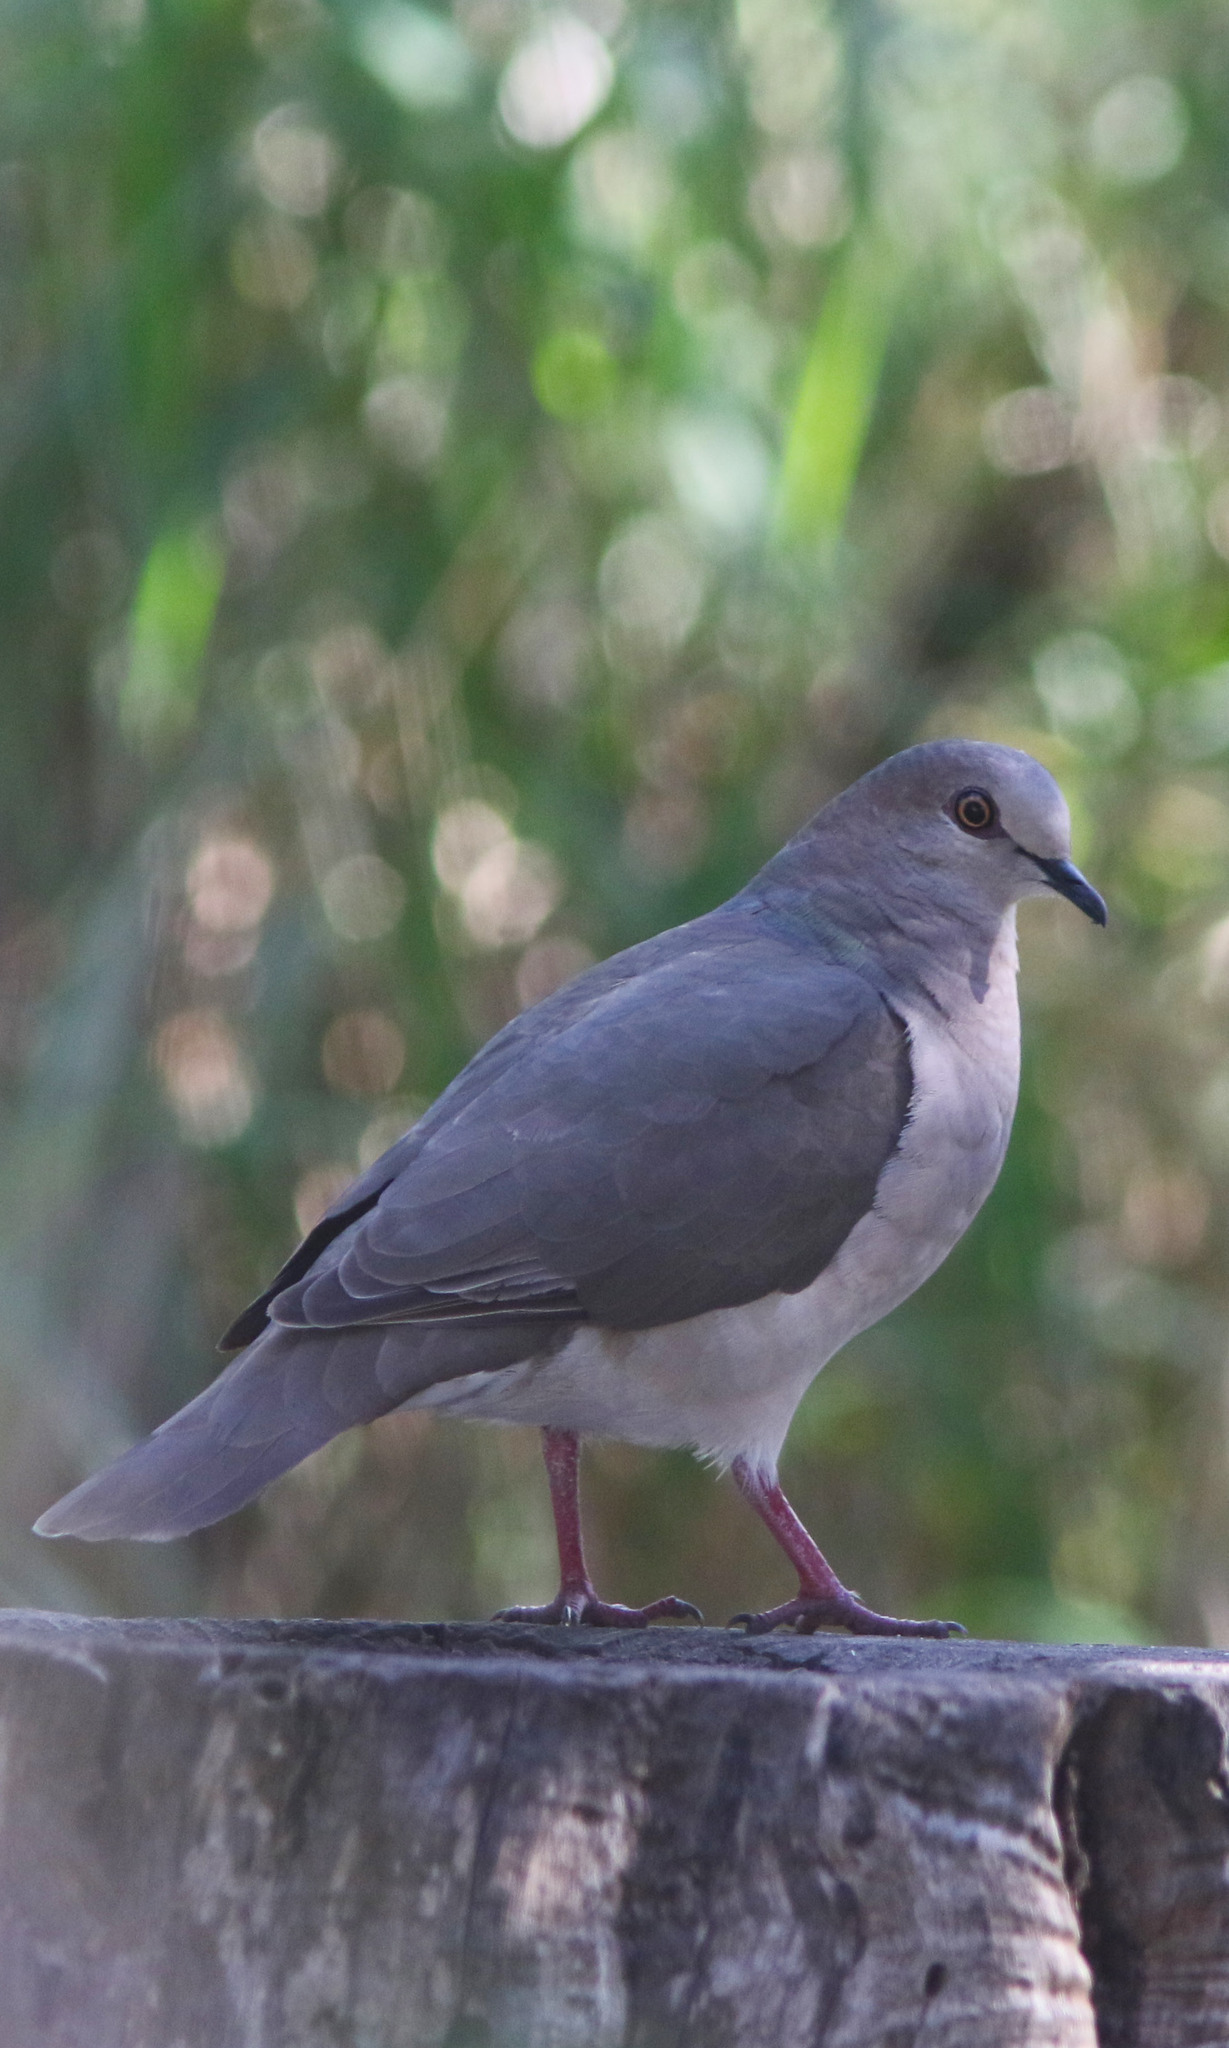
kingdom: Animalia
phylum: Chordata
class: Aves
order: Columbiformes
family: Columbidae
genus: Leptotila
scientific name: Leptotila verreauxi
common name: White-tipped dove
